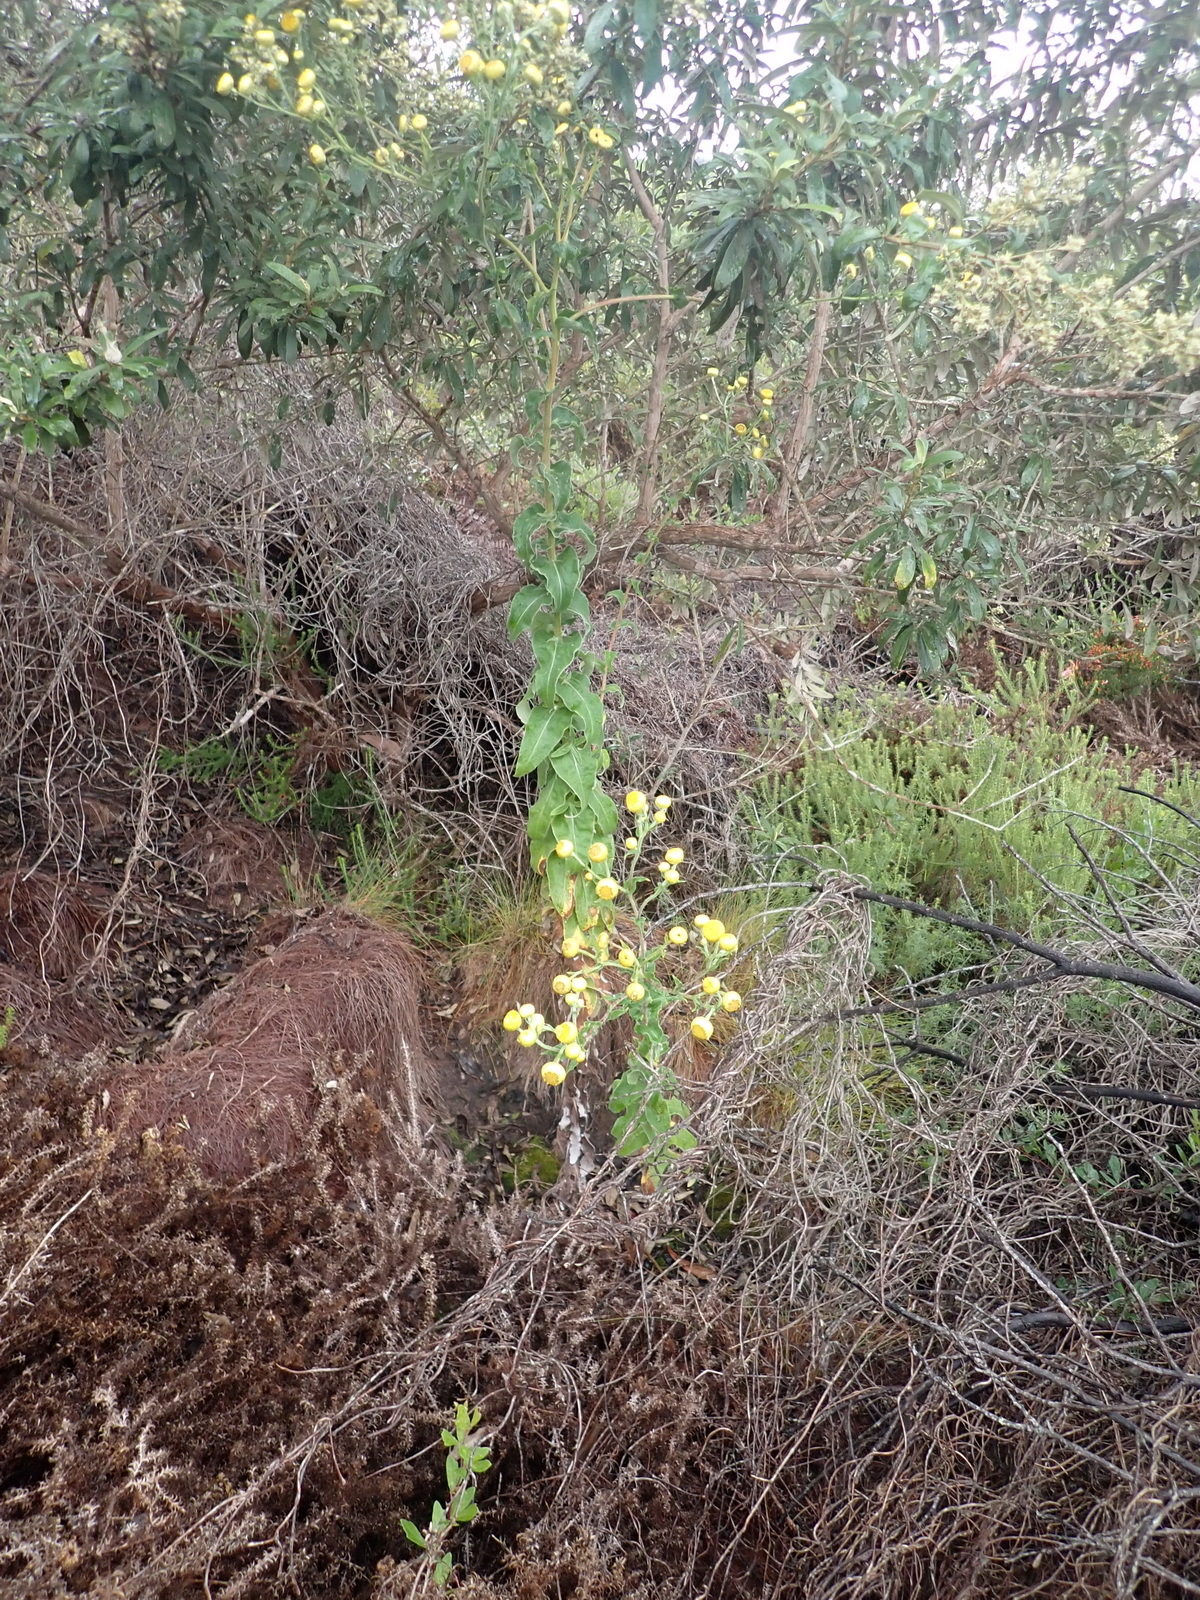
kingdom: Plantae
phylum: Tracheophyta
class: Magnoliopsida
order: Asterales
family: Asteraceae
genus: Helichrysum
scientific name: Helichrysum foetidum
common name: Stinking everlasting
